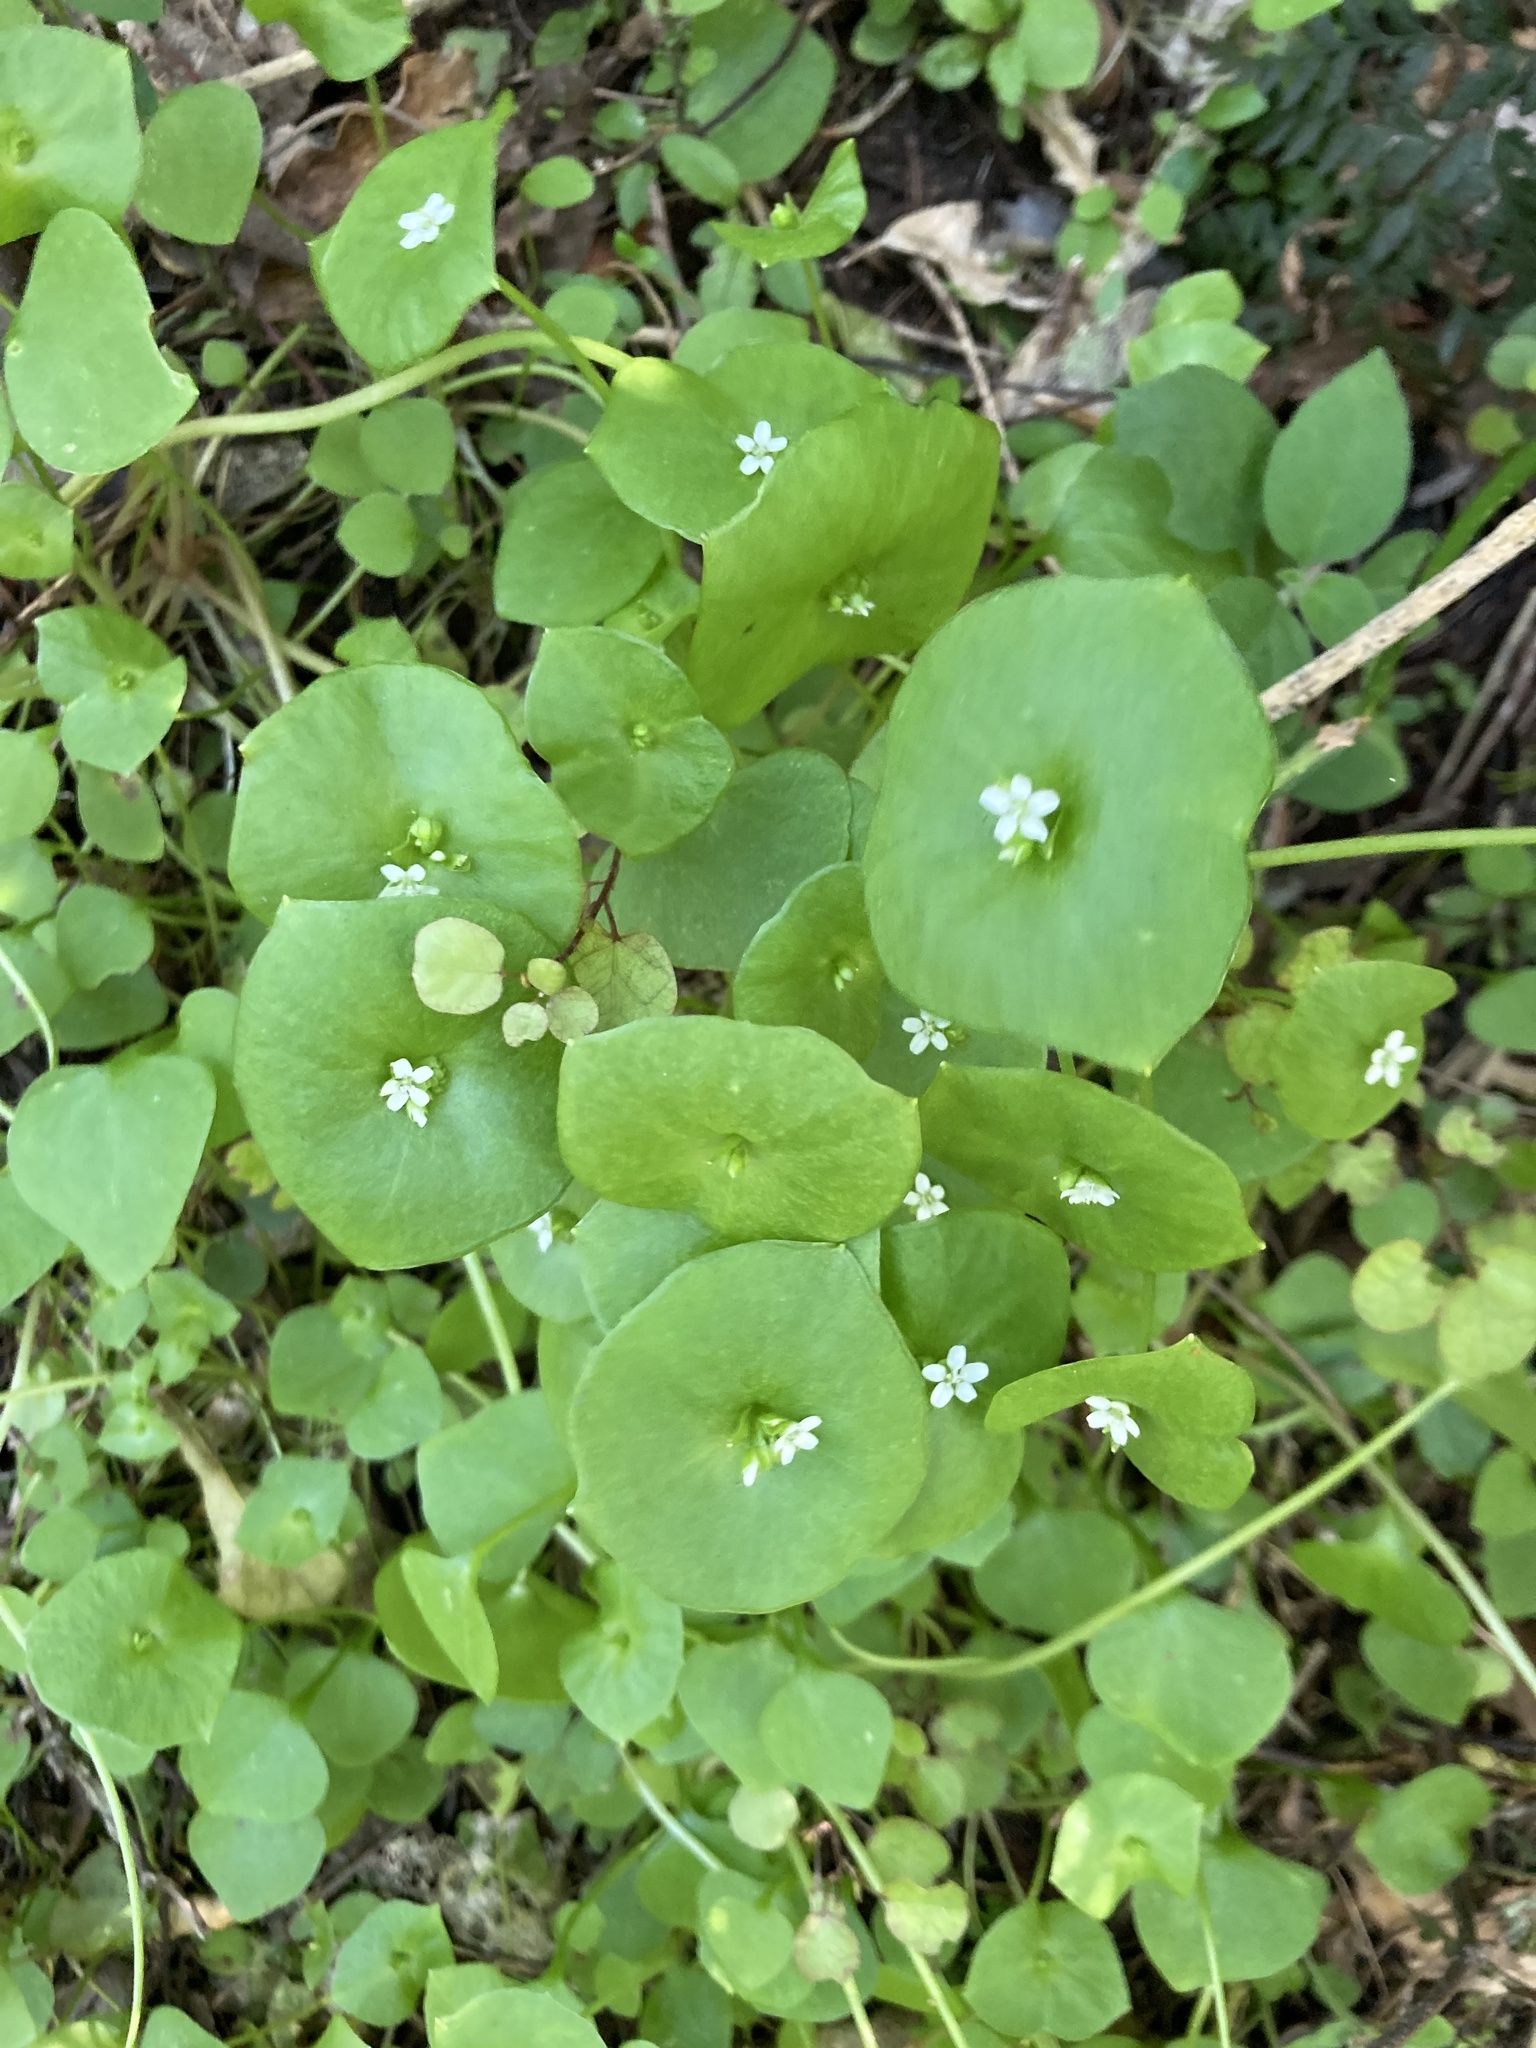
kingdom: Plantae
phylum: Tracheophyta
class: Magnoliopsida
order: Caryophyllales
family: Montiaceae
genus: Claytonia
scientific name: Claytonia perfoliata
